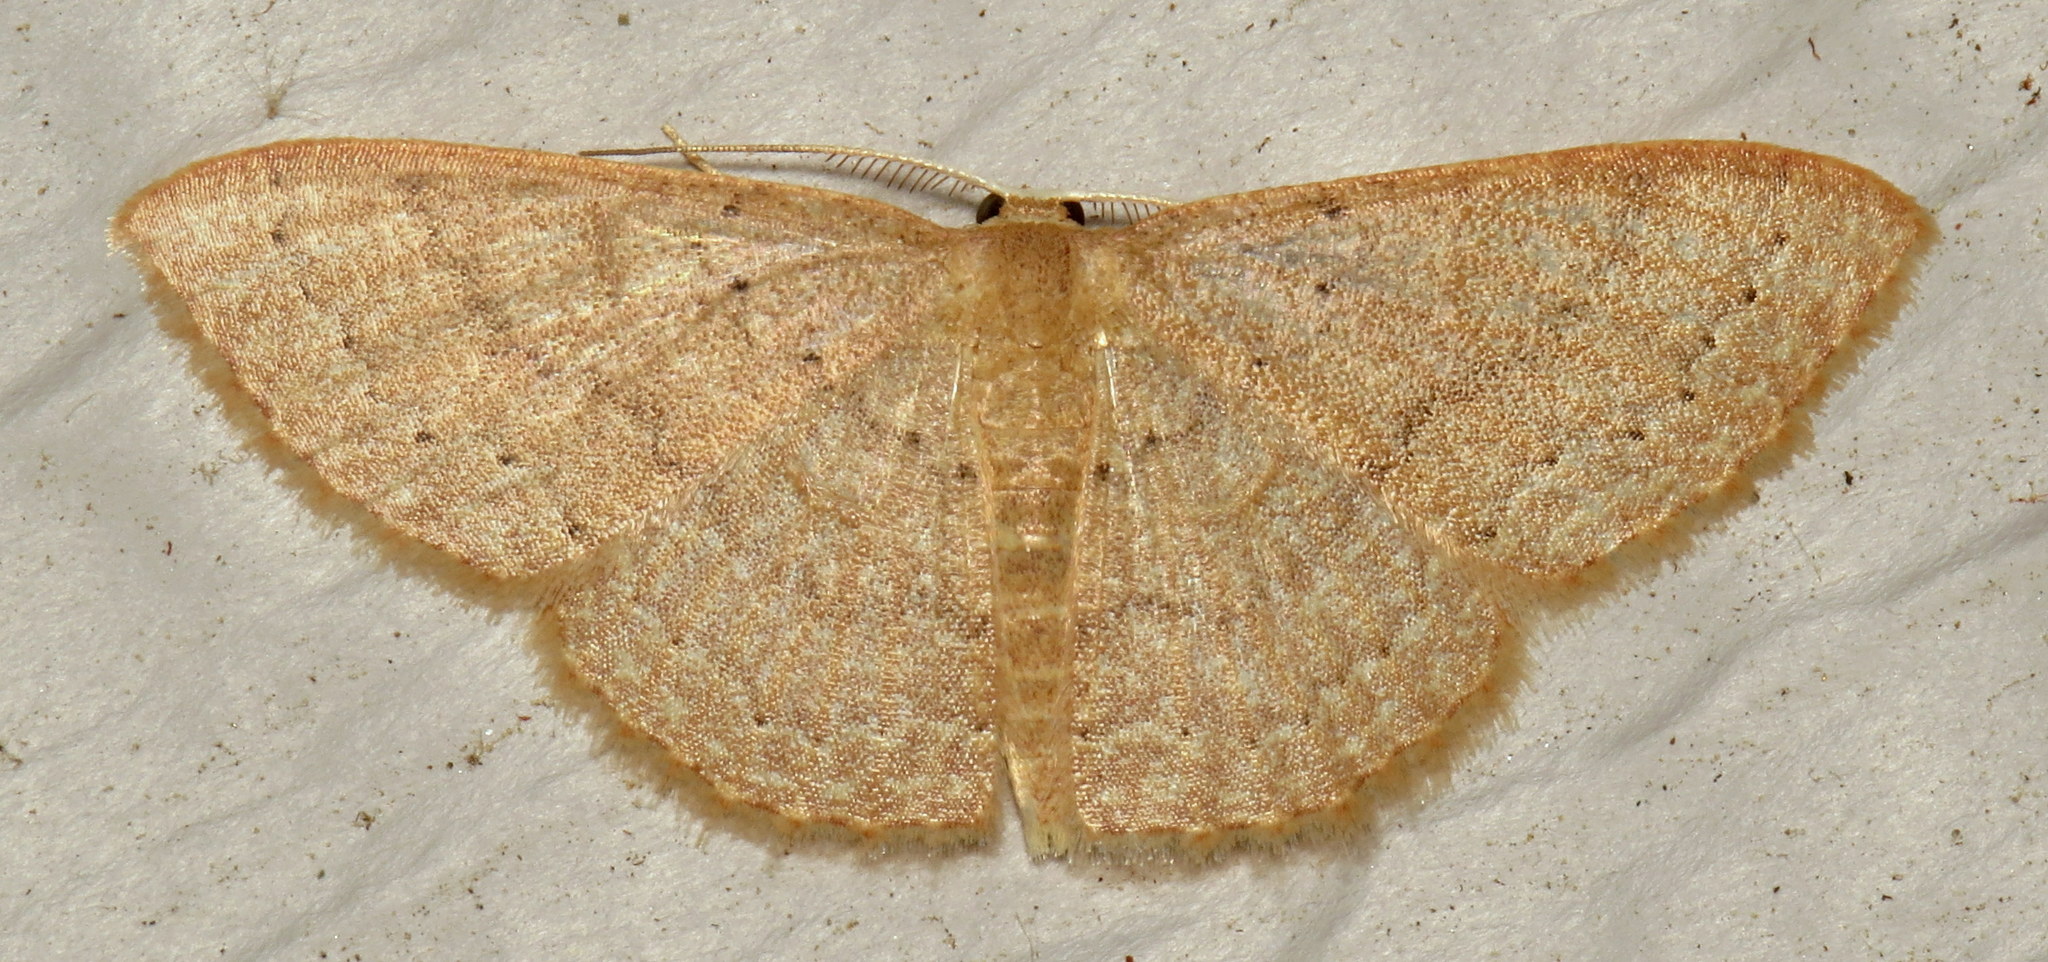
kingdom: Animalia
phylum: Arthropoda
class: Insecta
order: Lepidoptera
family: Geometridae
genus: Pleuroprucha
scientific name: Pleuroprucha insulsaria
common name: Common tan wave
